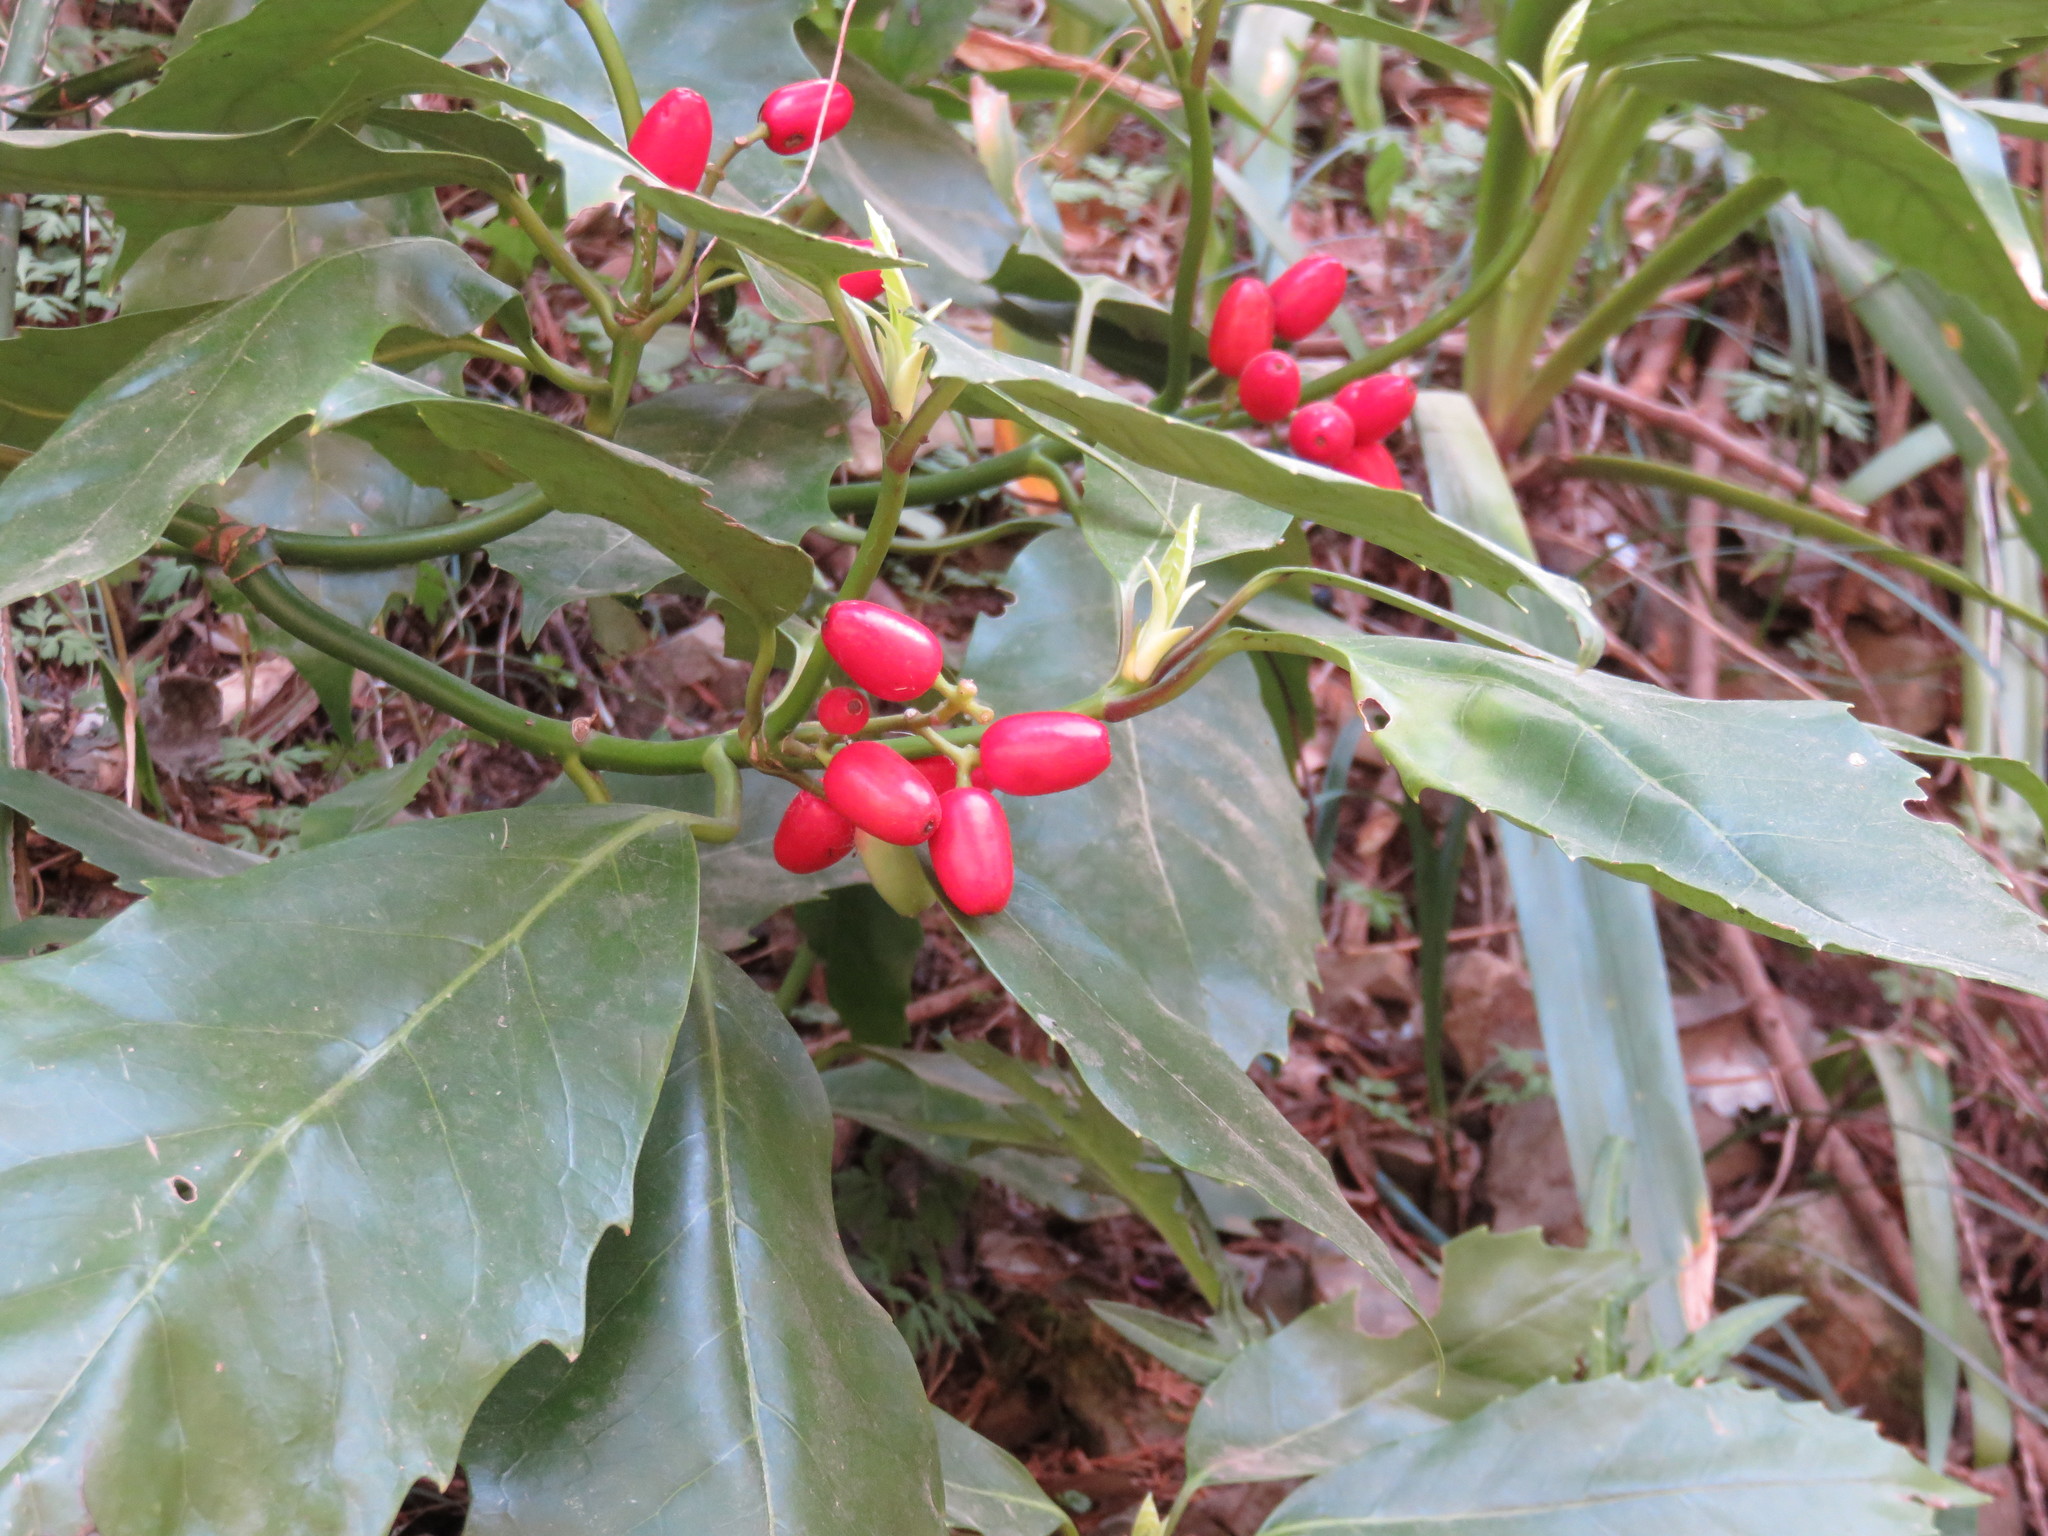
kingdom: Plantae
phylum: Tracheophyta
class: Magnoliopsida
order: Garryales
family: Garryaceae
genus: Aucuba
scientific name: Aucuba japonica
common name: Spotted-laurel
